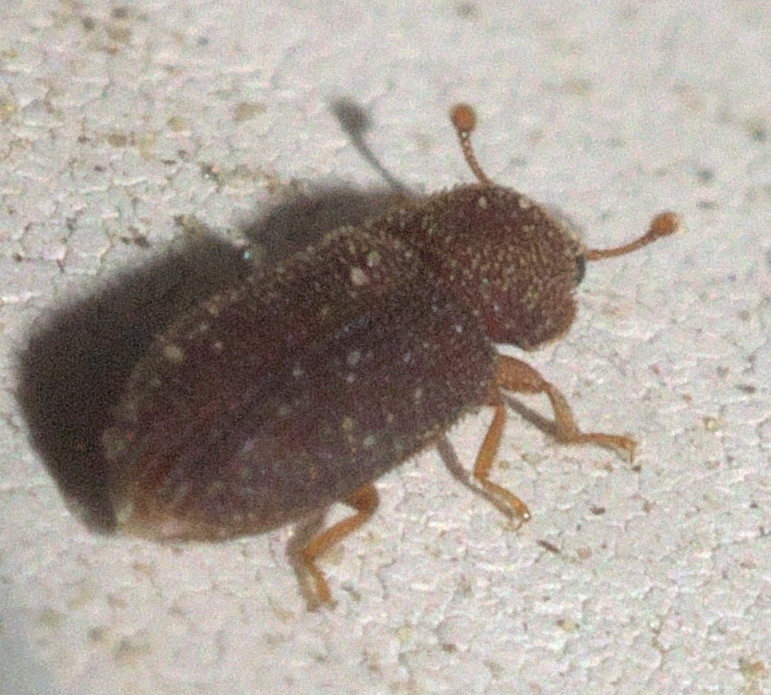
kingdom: Animalia
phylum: Arthropoda
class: Insecta
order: Coleoptera
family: Zopheridae
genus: Synchita
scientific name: Synchita fuliginosa
